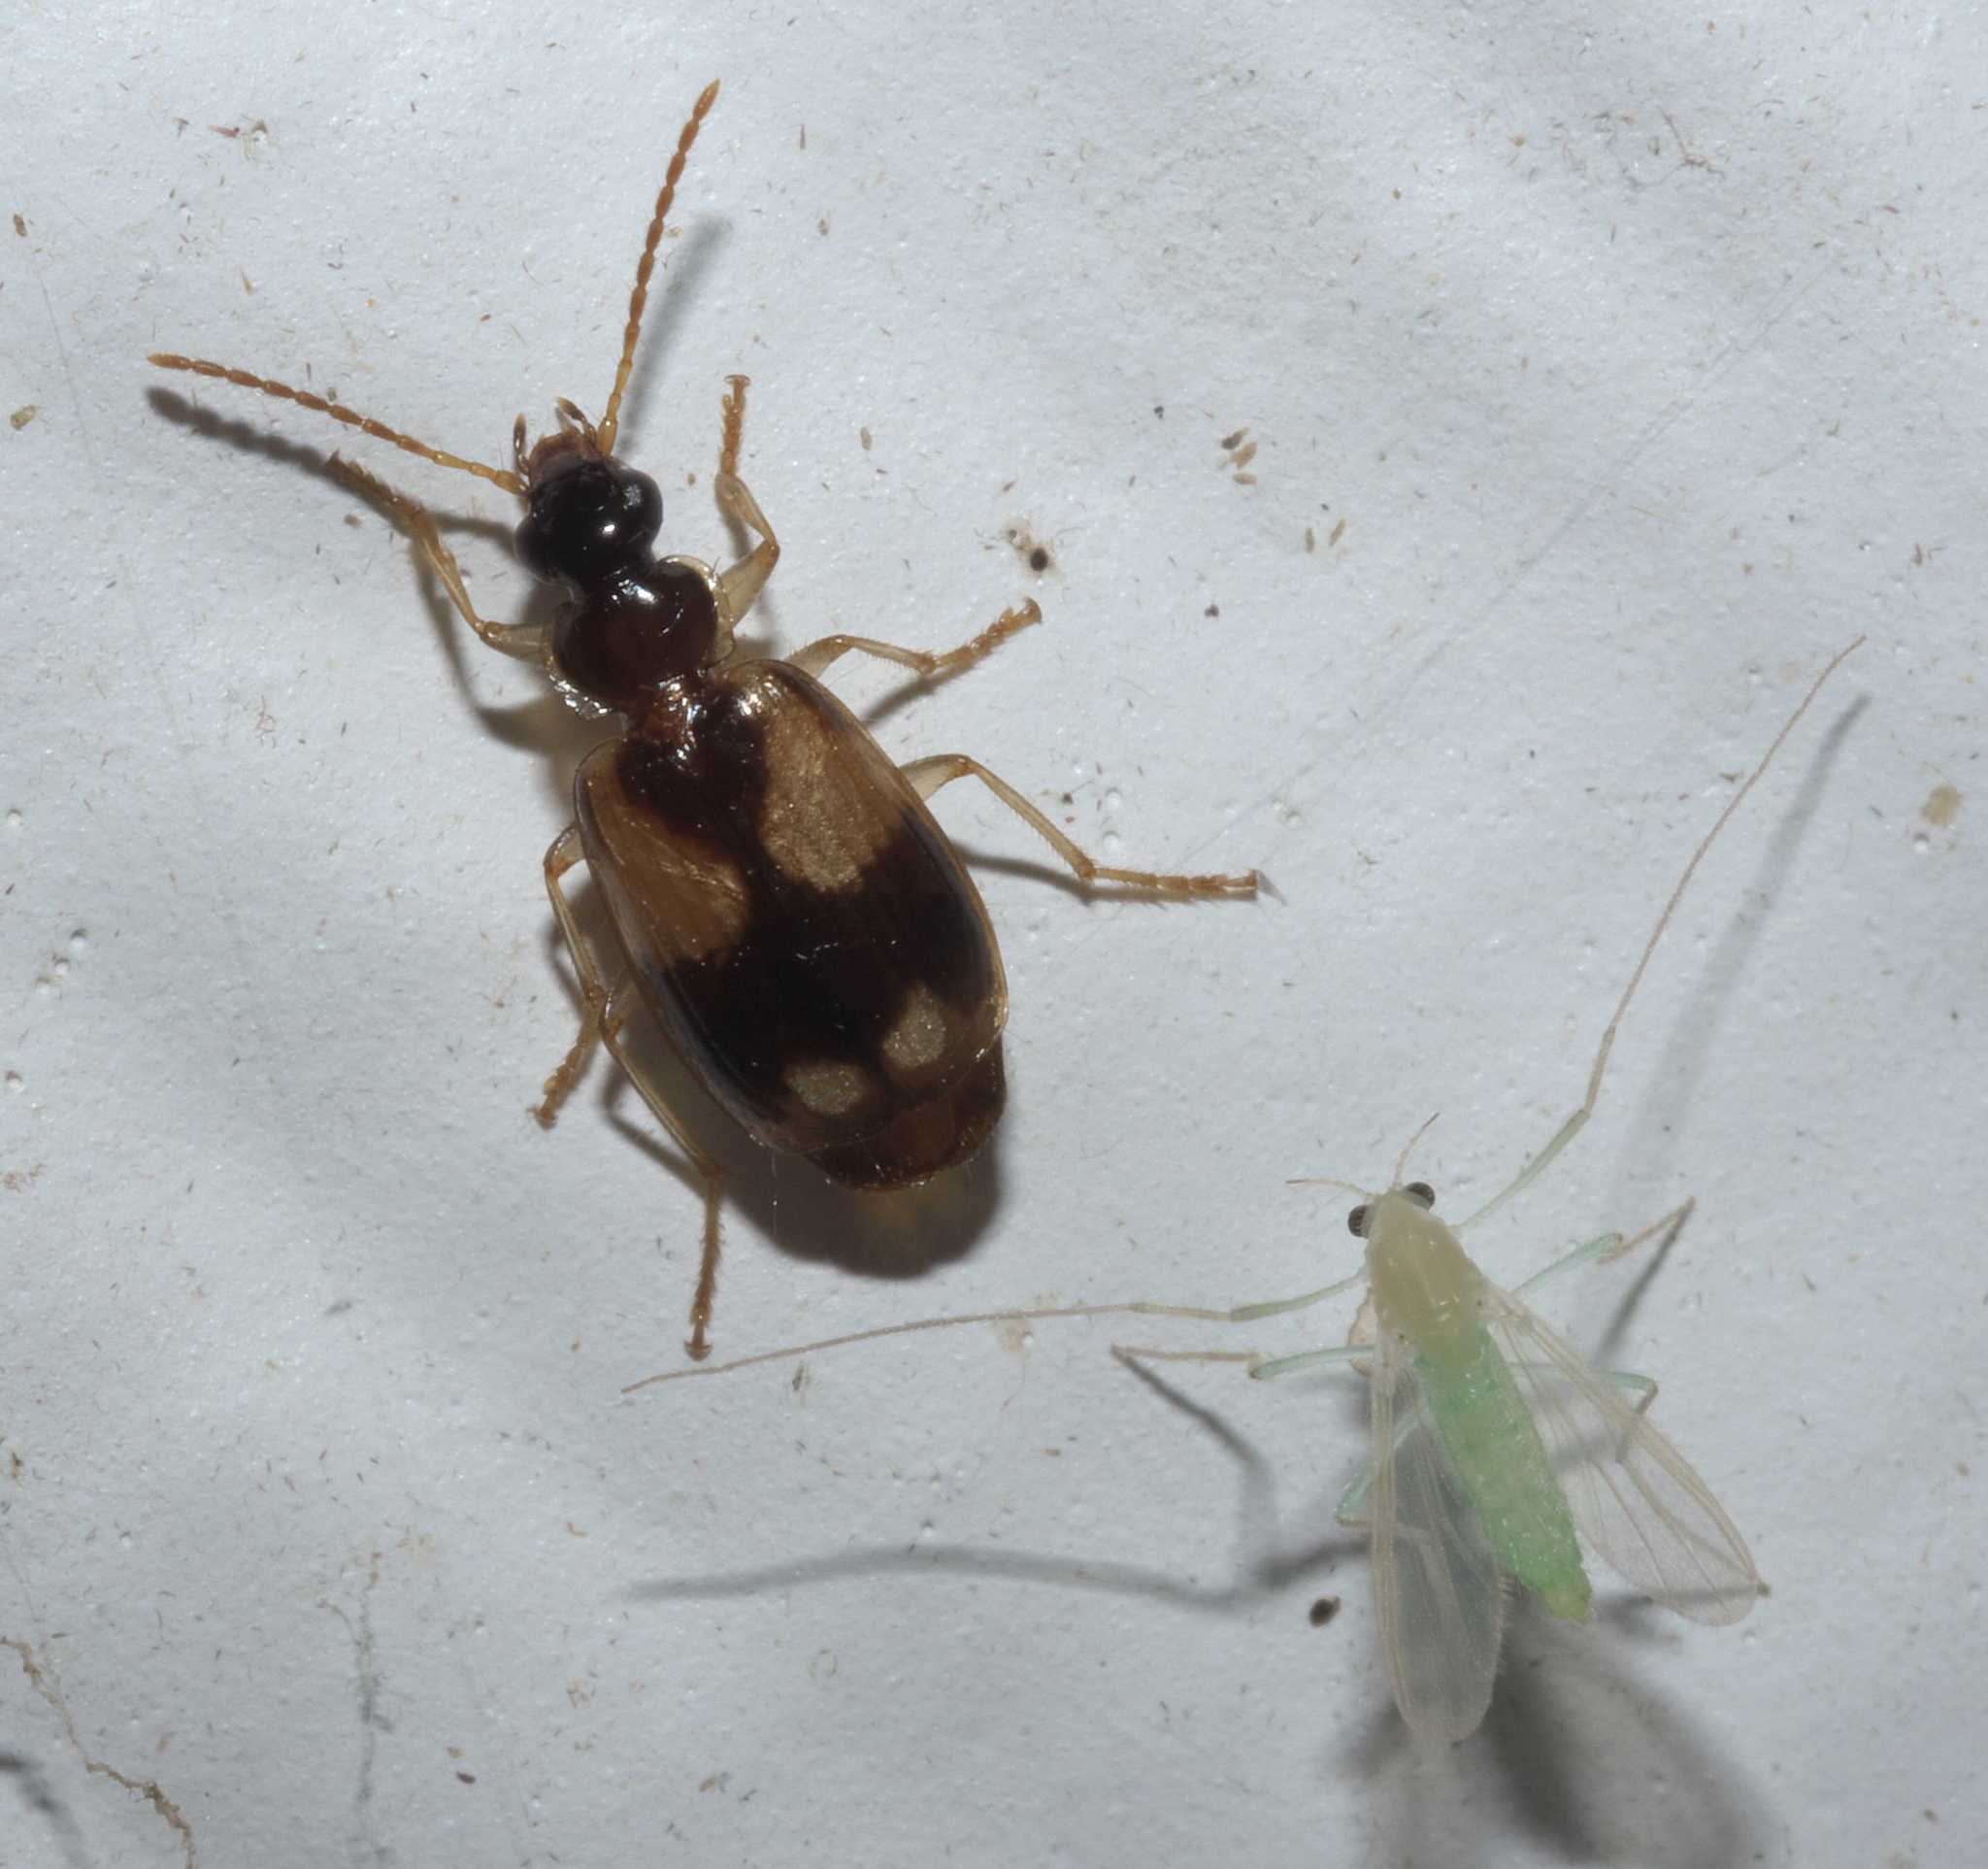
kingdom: Animalia
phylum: Arthropoda
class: Insecta
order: Coleoptera
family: Carabidae
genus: Lebia
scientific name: Lebia ornata
